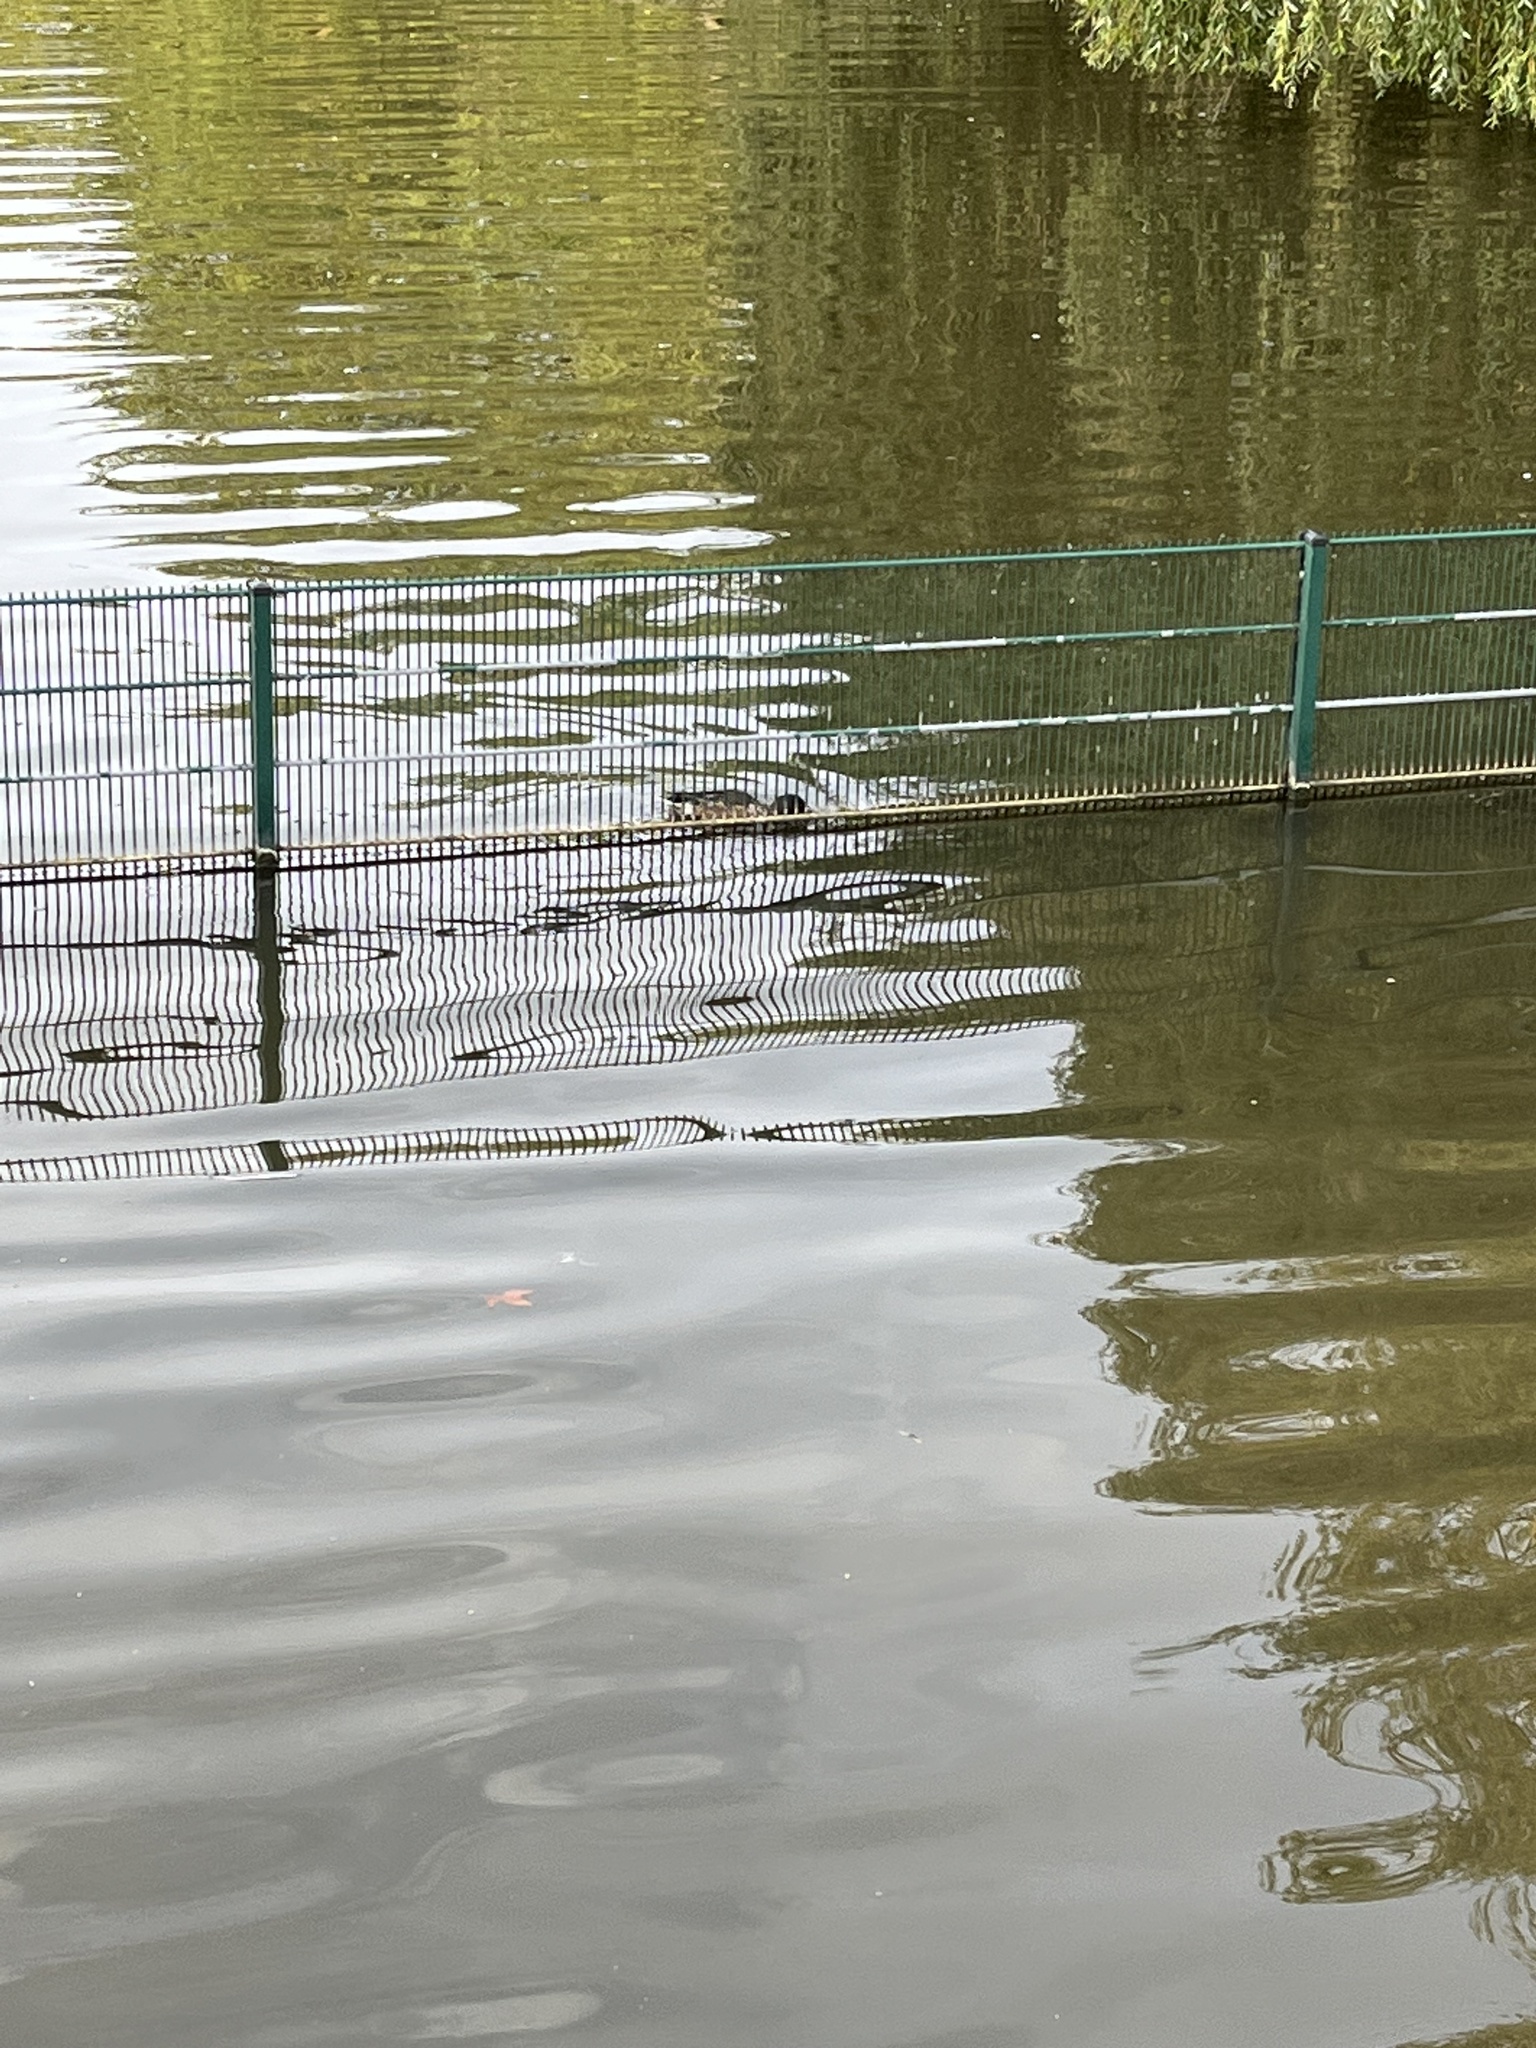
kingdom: Animalia
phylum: Chordata
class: Aves
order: Anseriformes
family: Anatidae
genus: Spatula
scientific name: Spatula clypeata
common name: Northern shoveler
